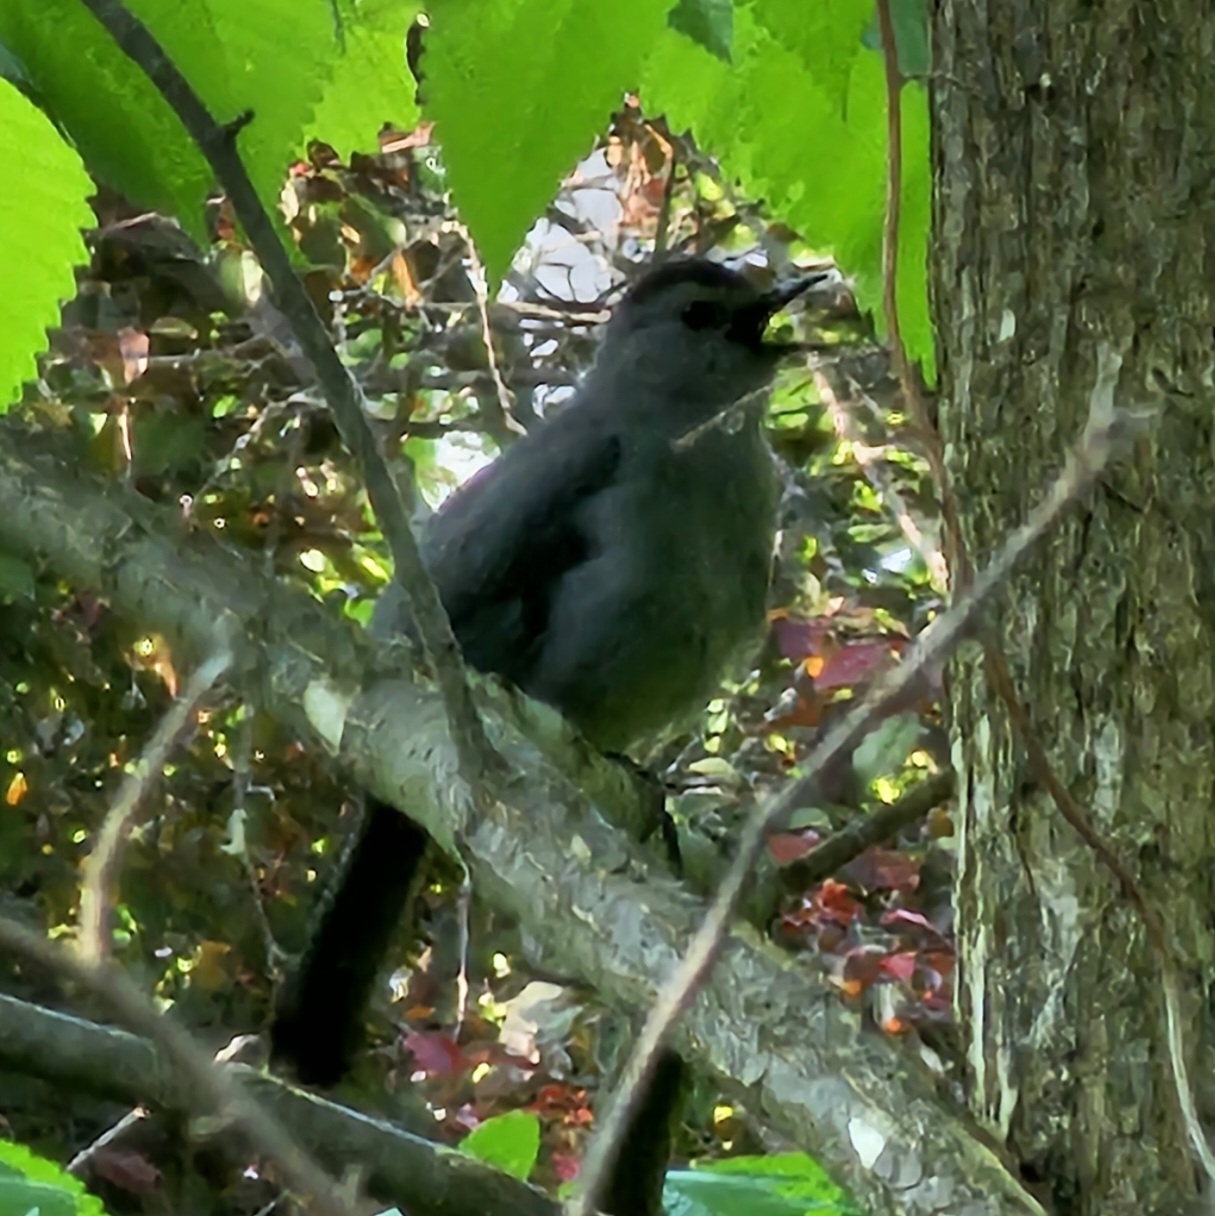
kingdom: Animalia
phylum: Chordata
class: Aves
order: Passeriformes
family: Mimidae
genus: Dumetella
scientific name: Dumetella carolinensis
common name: Gray catbird
